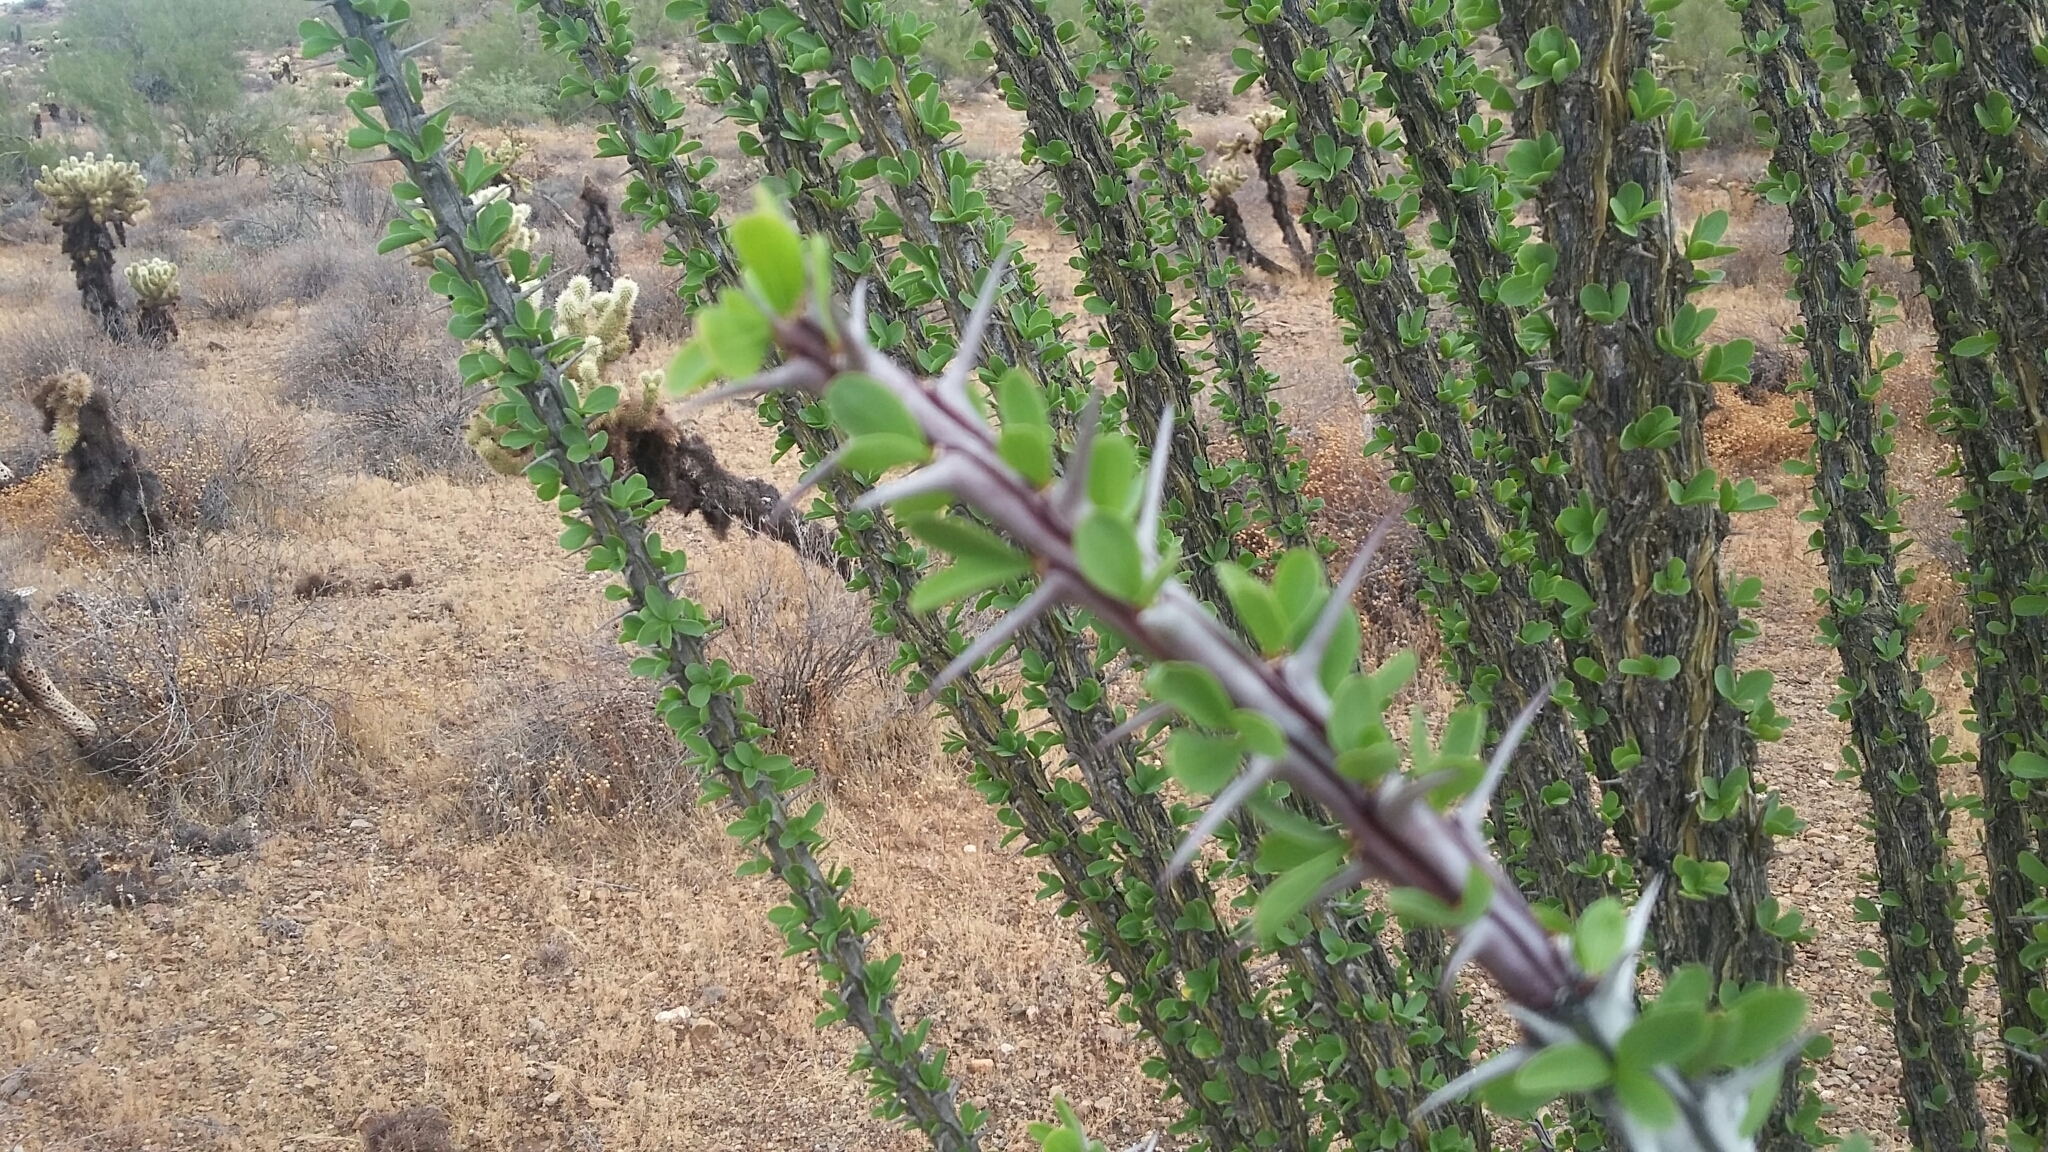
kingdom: Plantae
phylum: Tracheophyta
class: Magnoliopsida
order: Ericales
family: Fouquieriaceae
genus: Fouquieria
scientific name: Fouquieria splendens
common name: Vine-cactus
